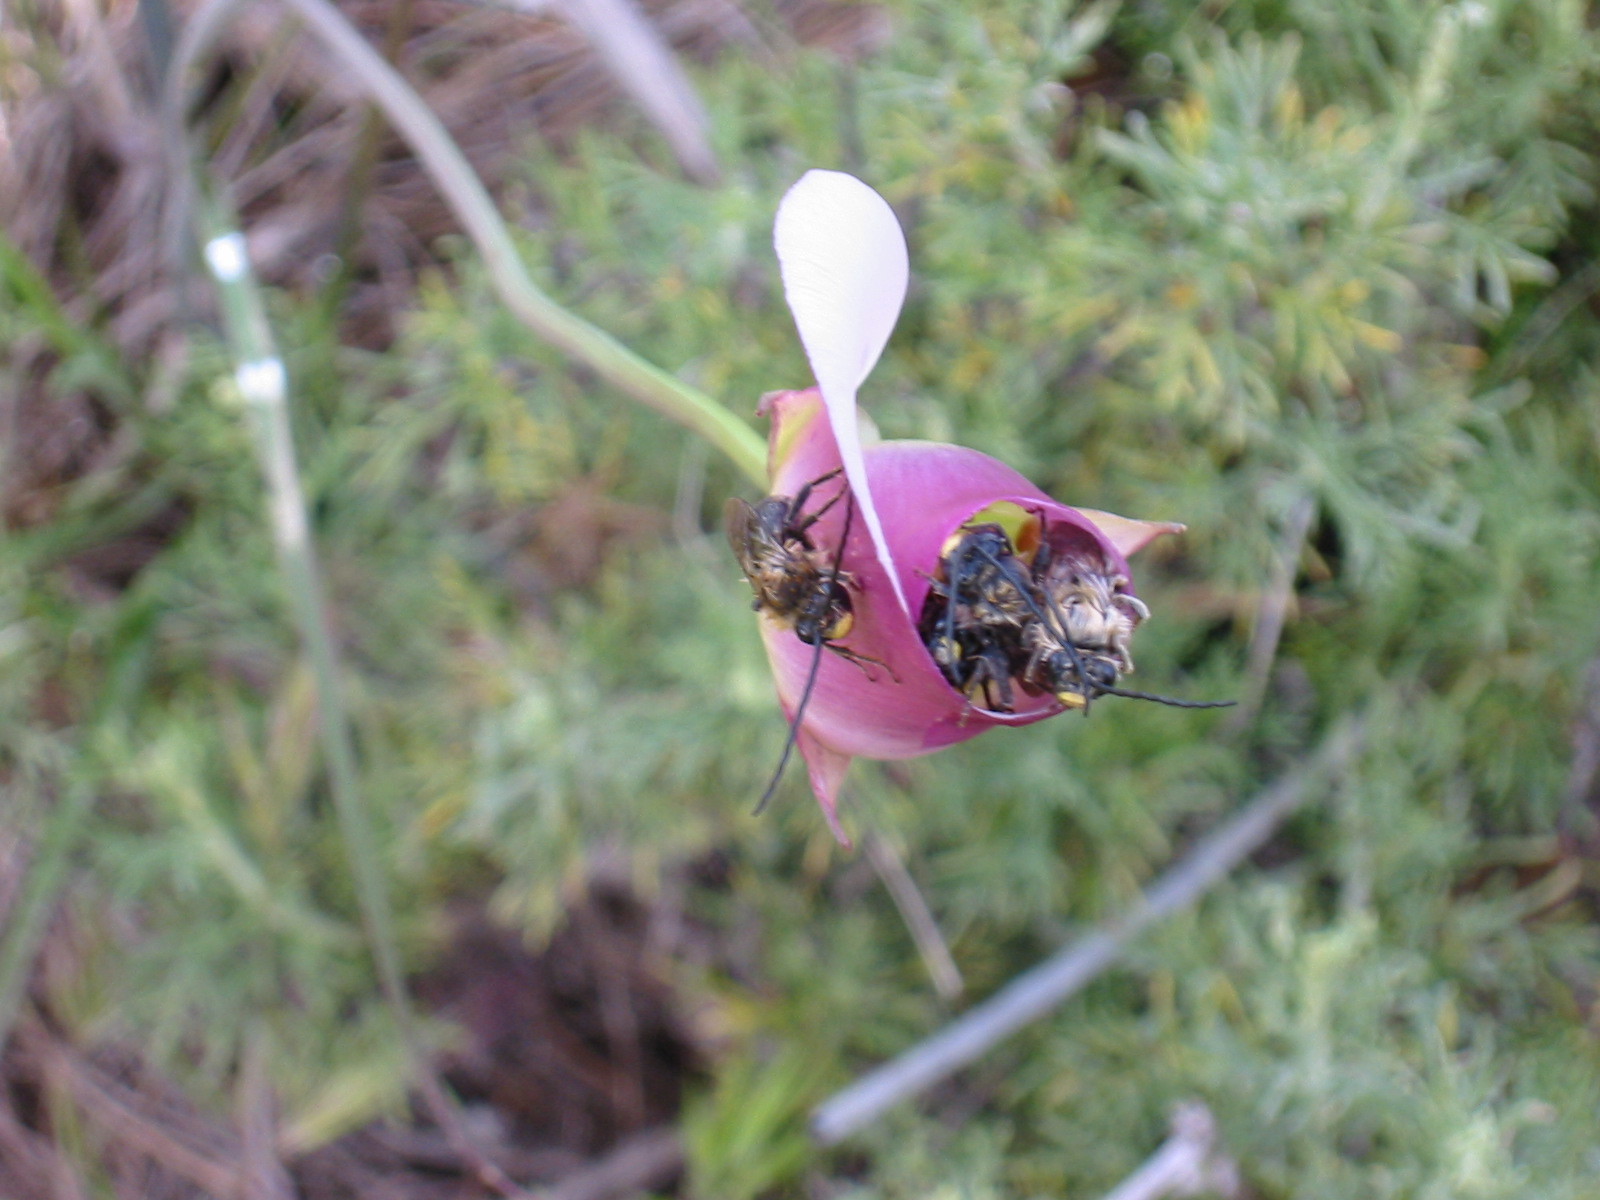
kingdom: Plantae
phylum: Tracheophyta
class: Liliopsida
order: Liliales
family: Liliaceae
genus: Calochortus
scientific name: Calochortus catalinae
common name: Catalina mariposa-lily
